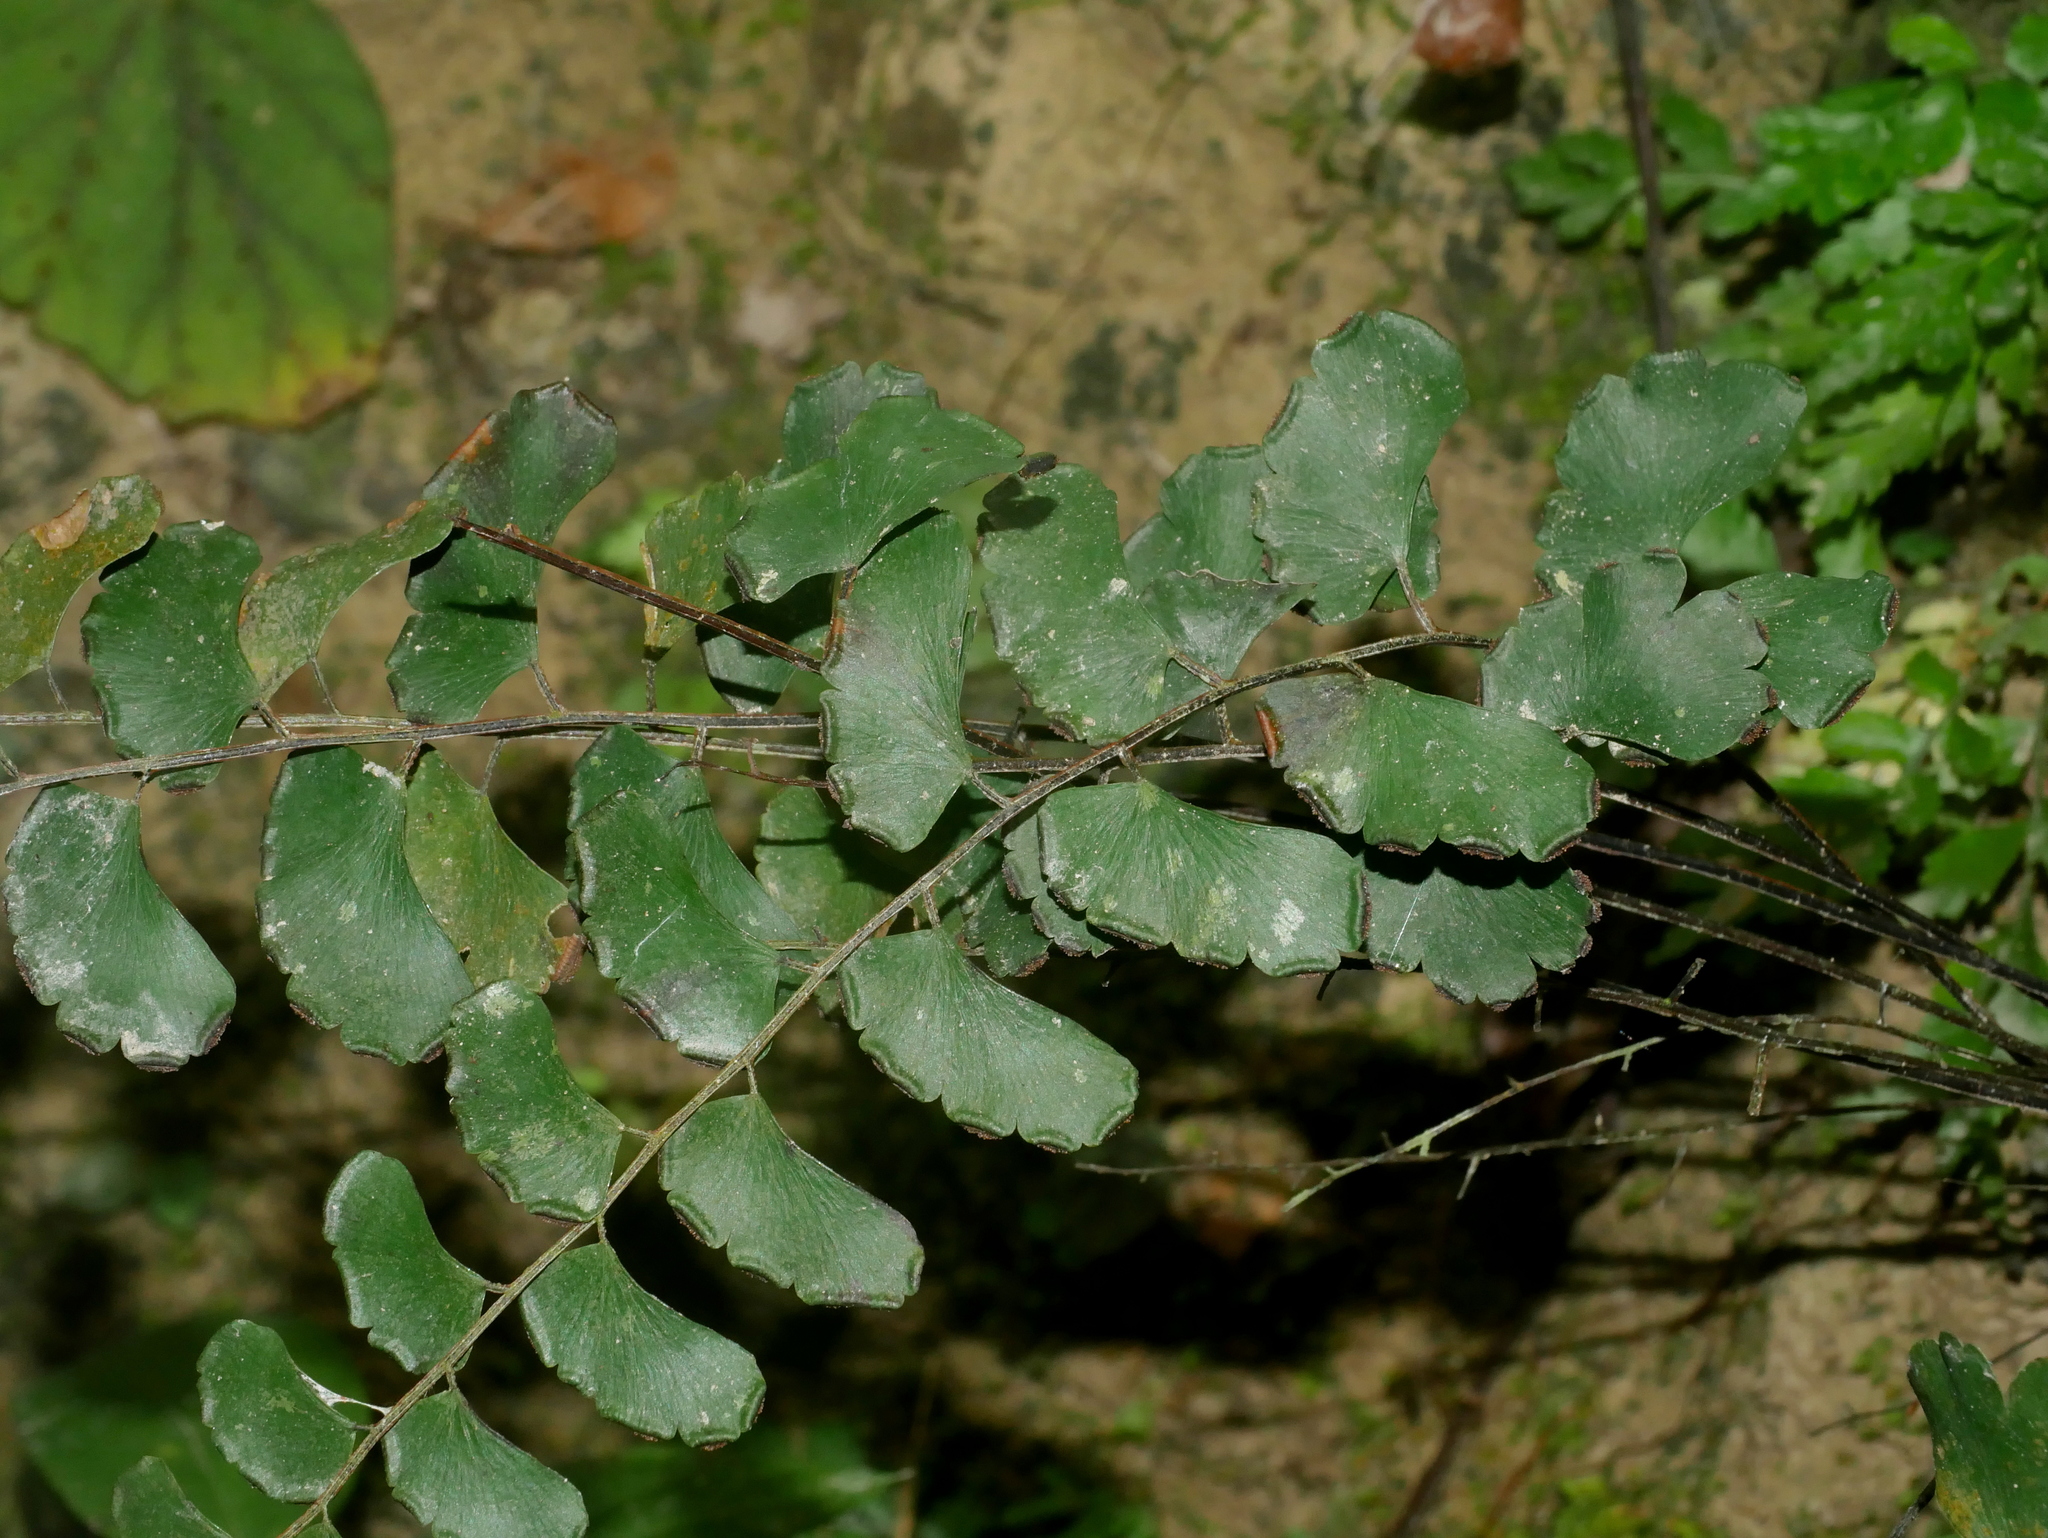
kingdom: Plantae
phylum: Tracheophyta
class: Polypodiopsida
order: Polypodiales
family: Pteridaceae
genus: Adiantum
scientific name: Adiantum philippense
